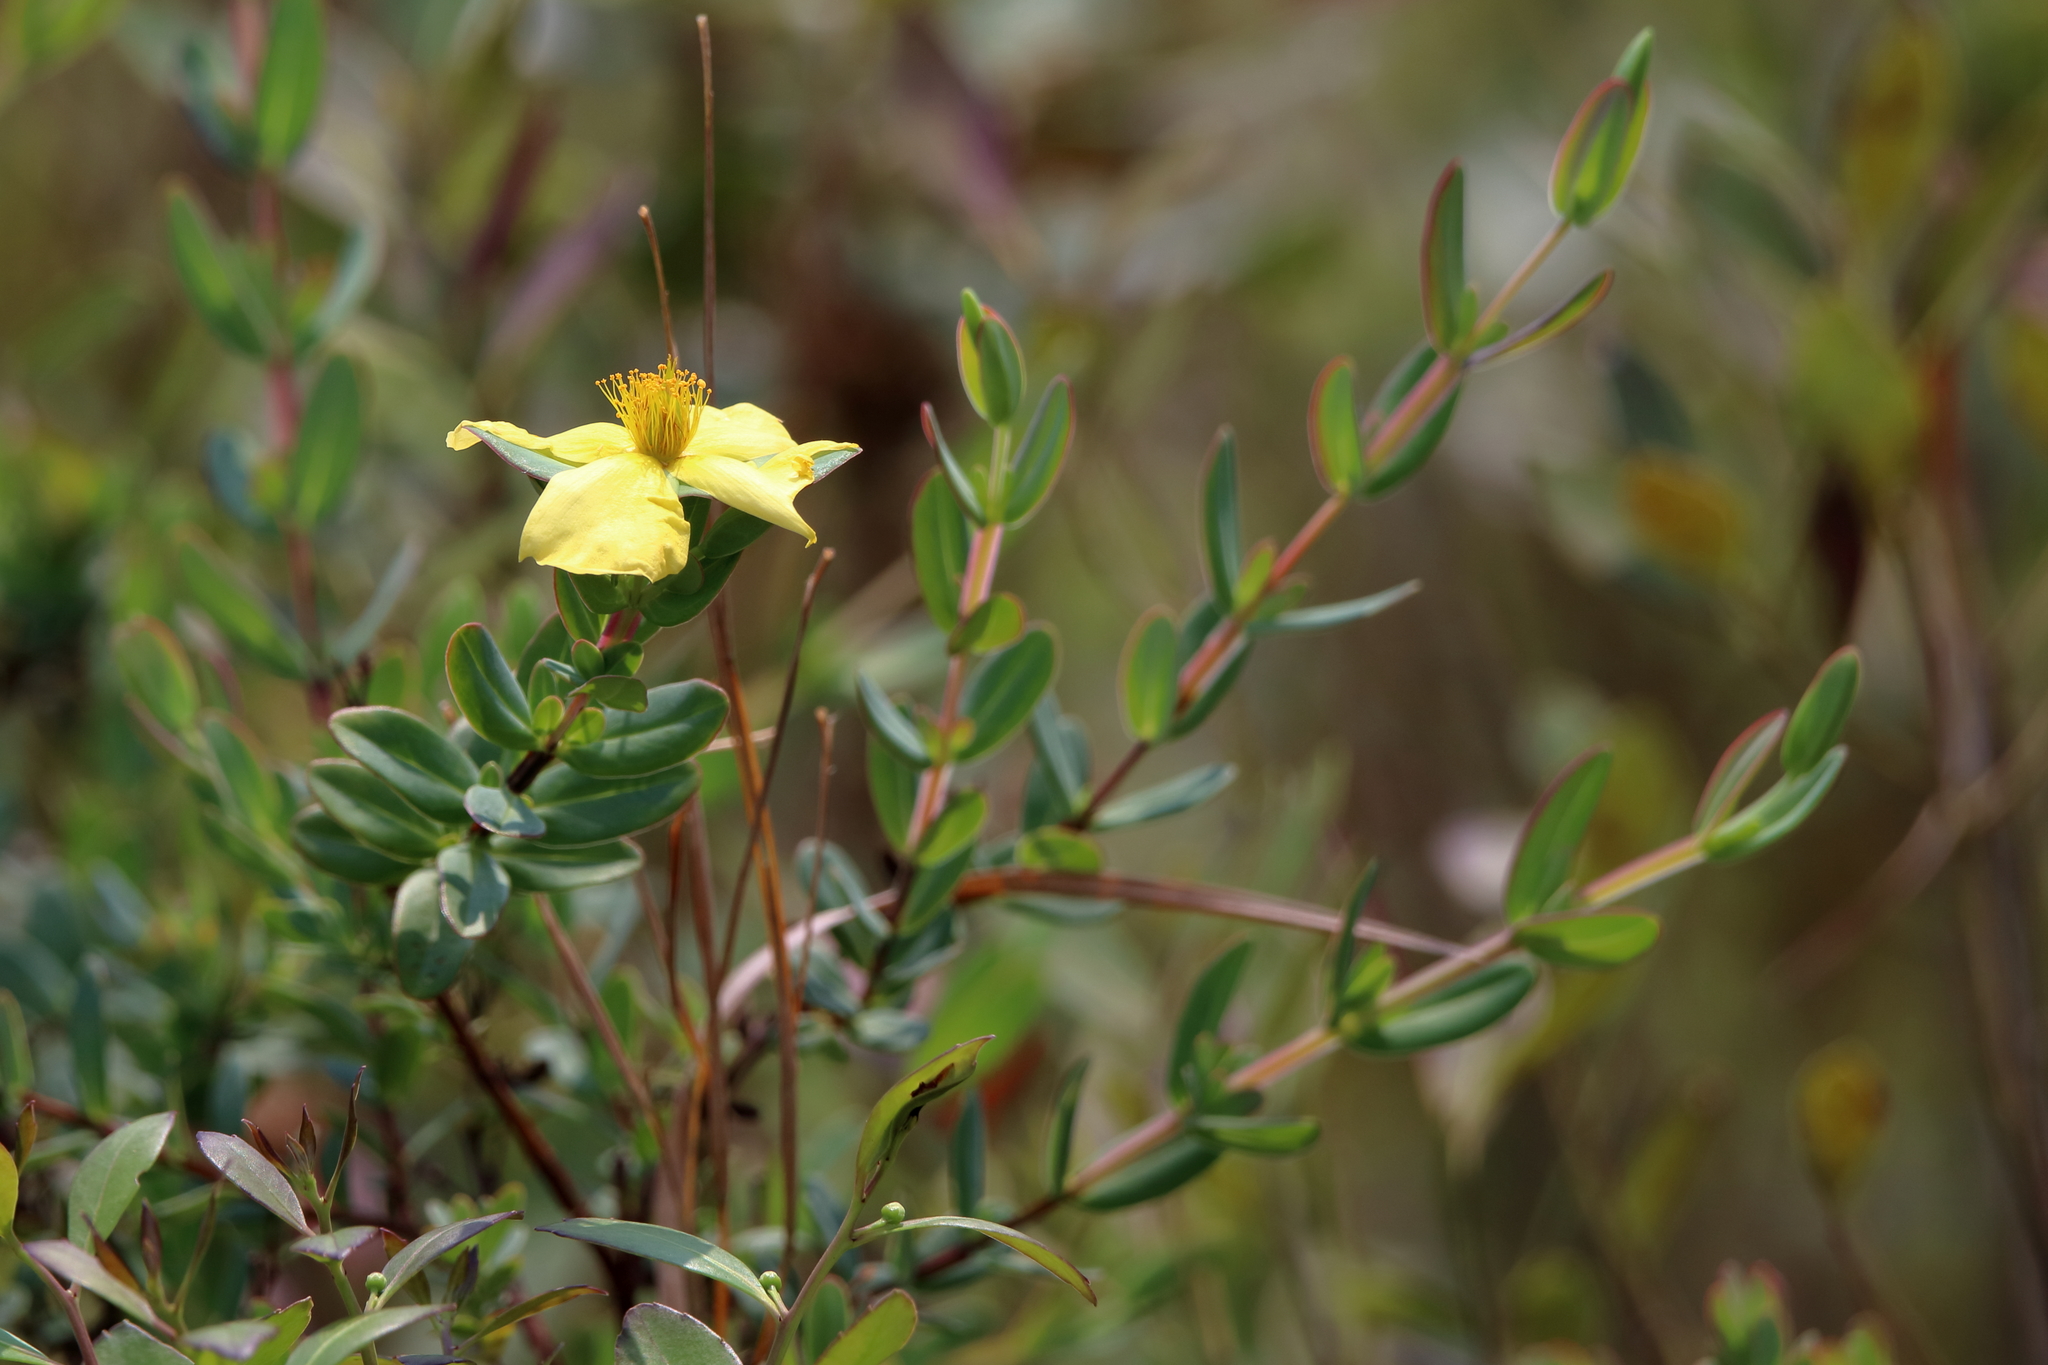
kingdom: Plantae
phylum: Tracheophyta
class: Magnoliopsida
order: Malpighiales
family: Hypericaceae
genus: Hypericum
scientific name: Hypericum crux-andreae
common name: St.-peter's-wort
